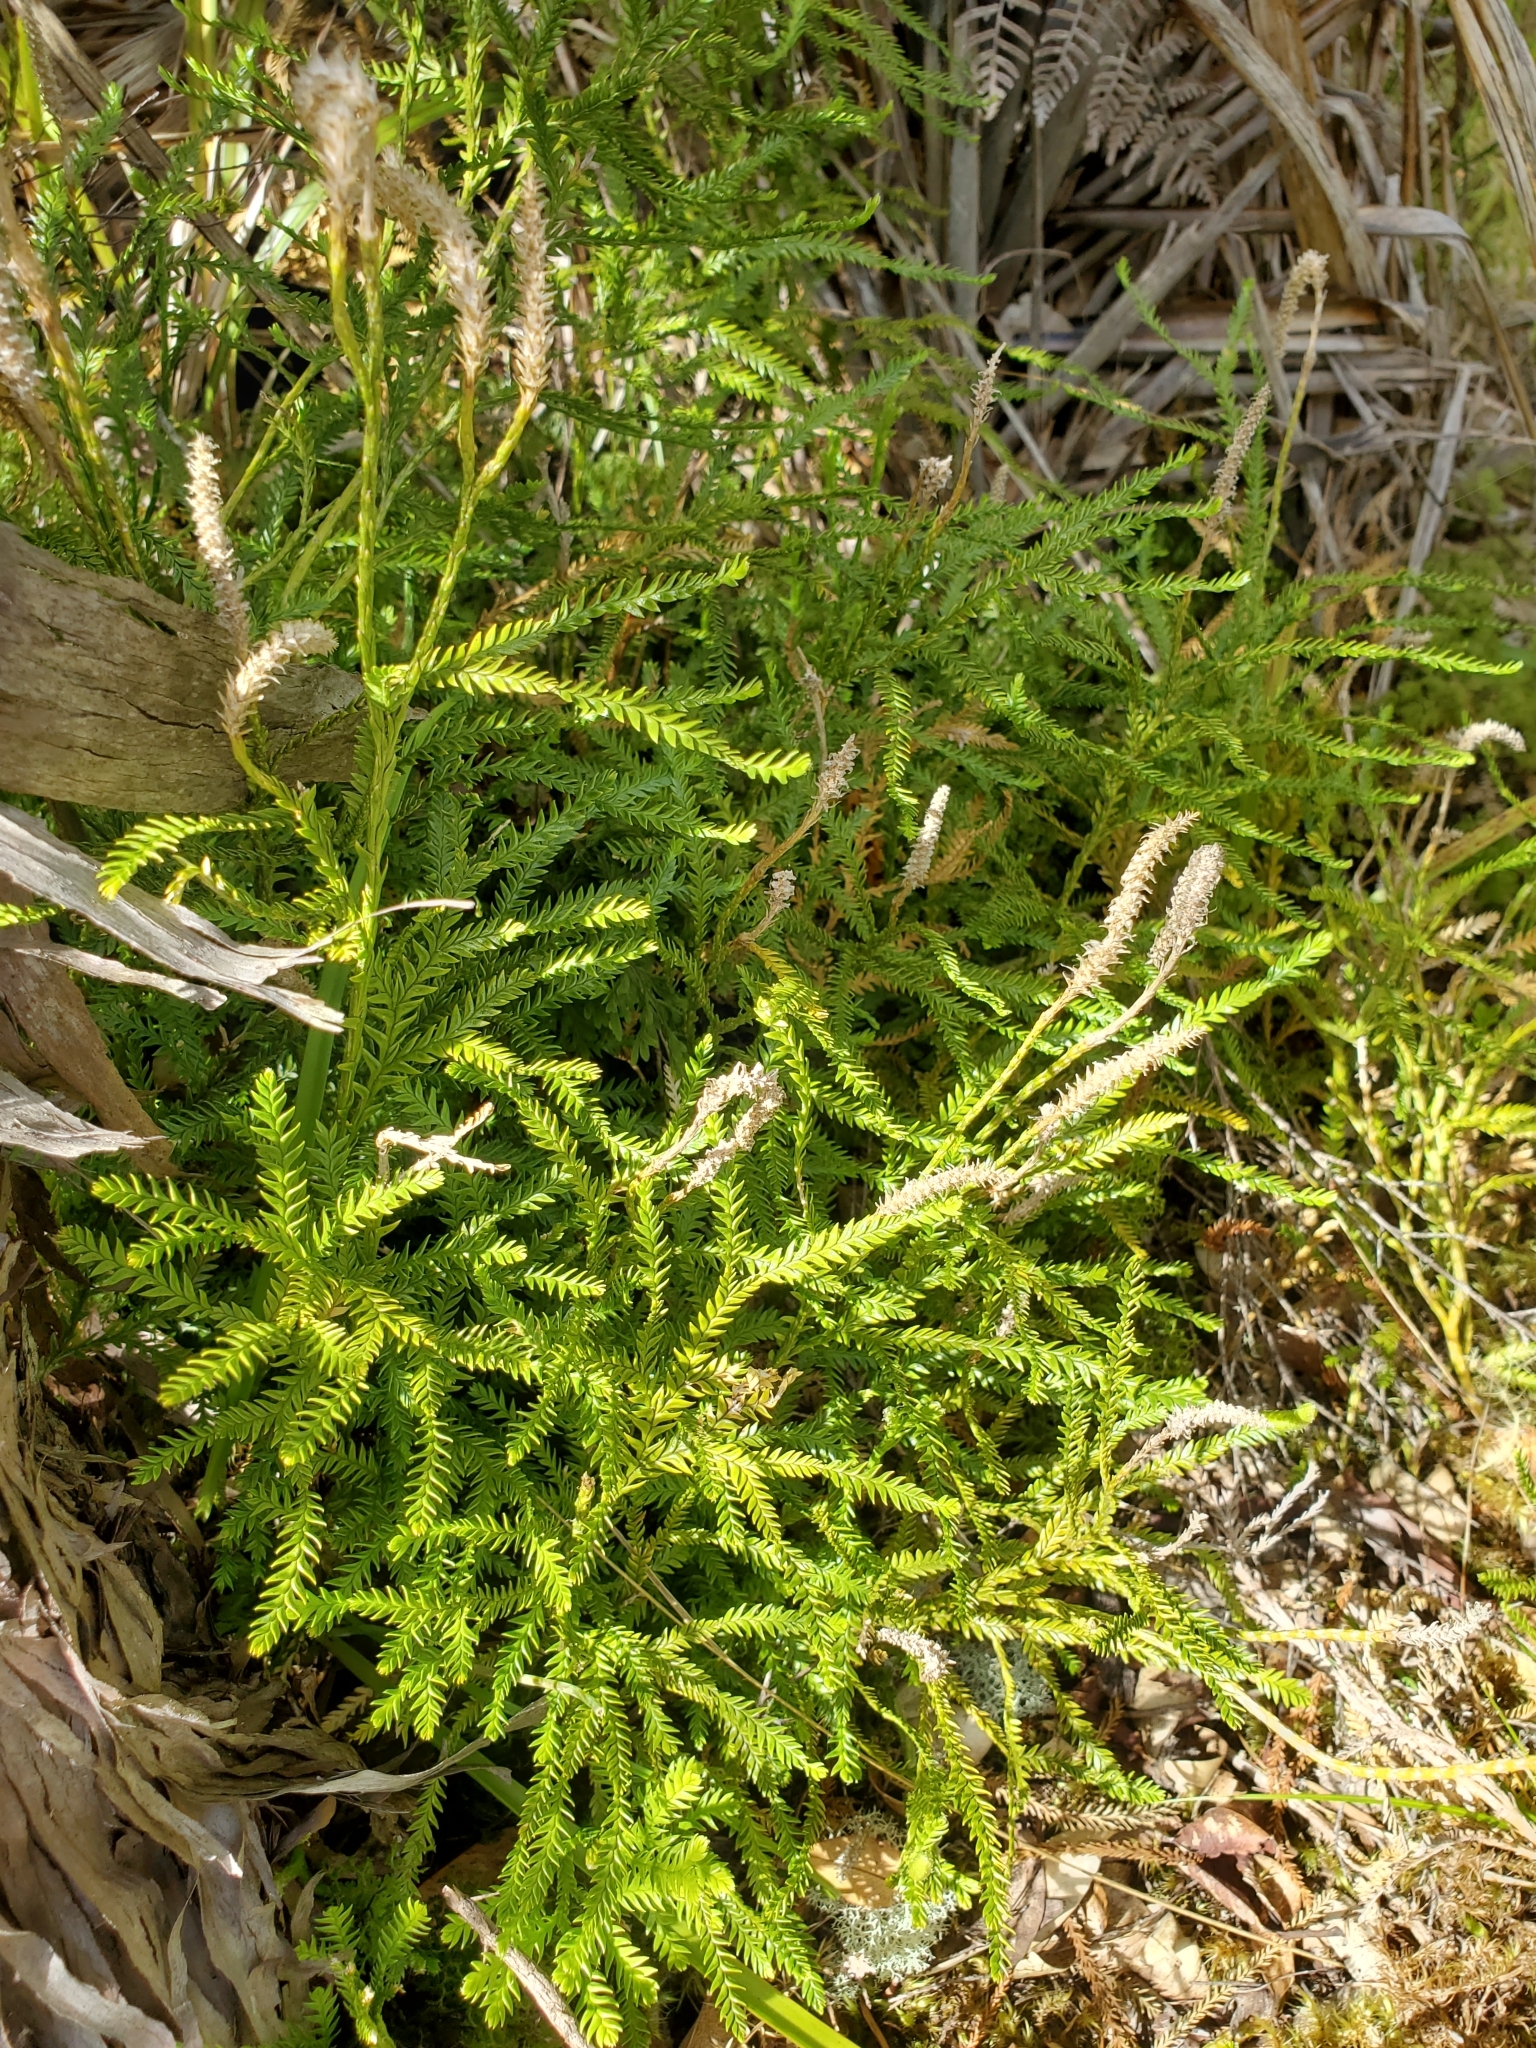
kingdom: Plantae
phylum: Tracheophyta
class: Lycopodiopsida
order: Lycopodiales
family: Lycopodiaceae
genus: Diphasium
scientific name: Diphasium scariosum
